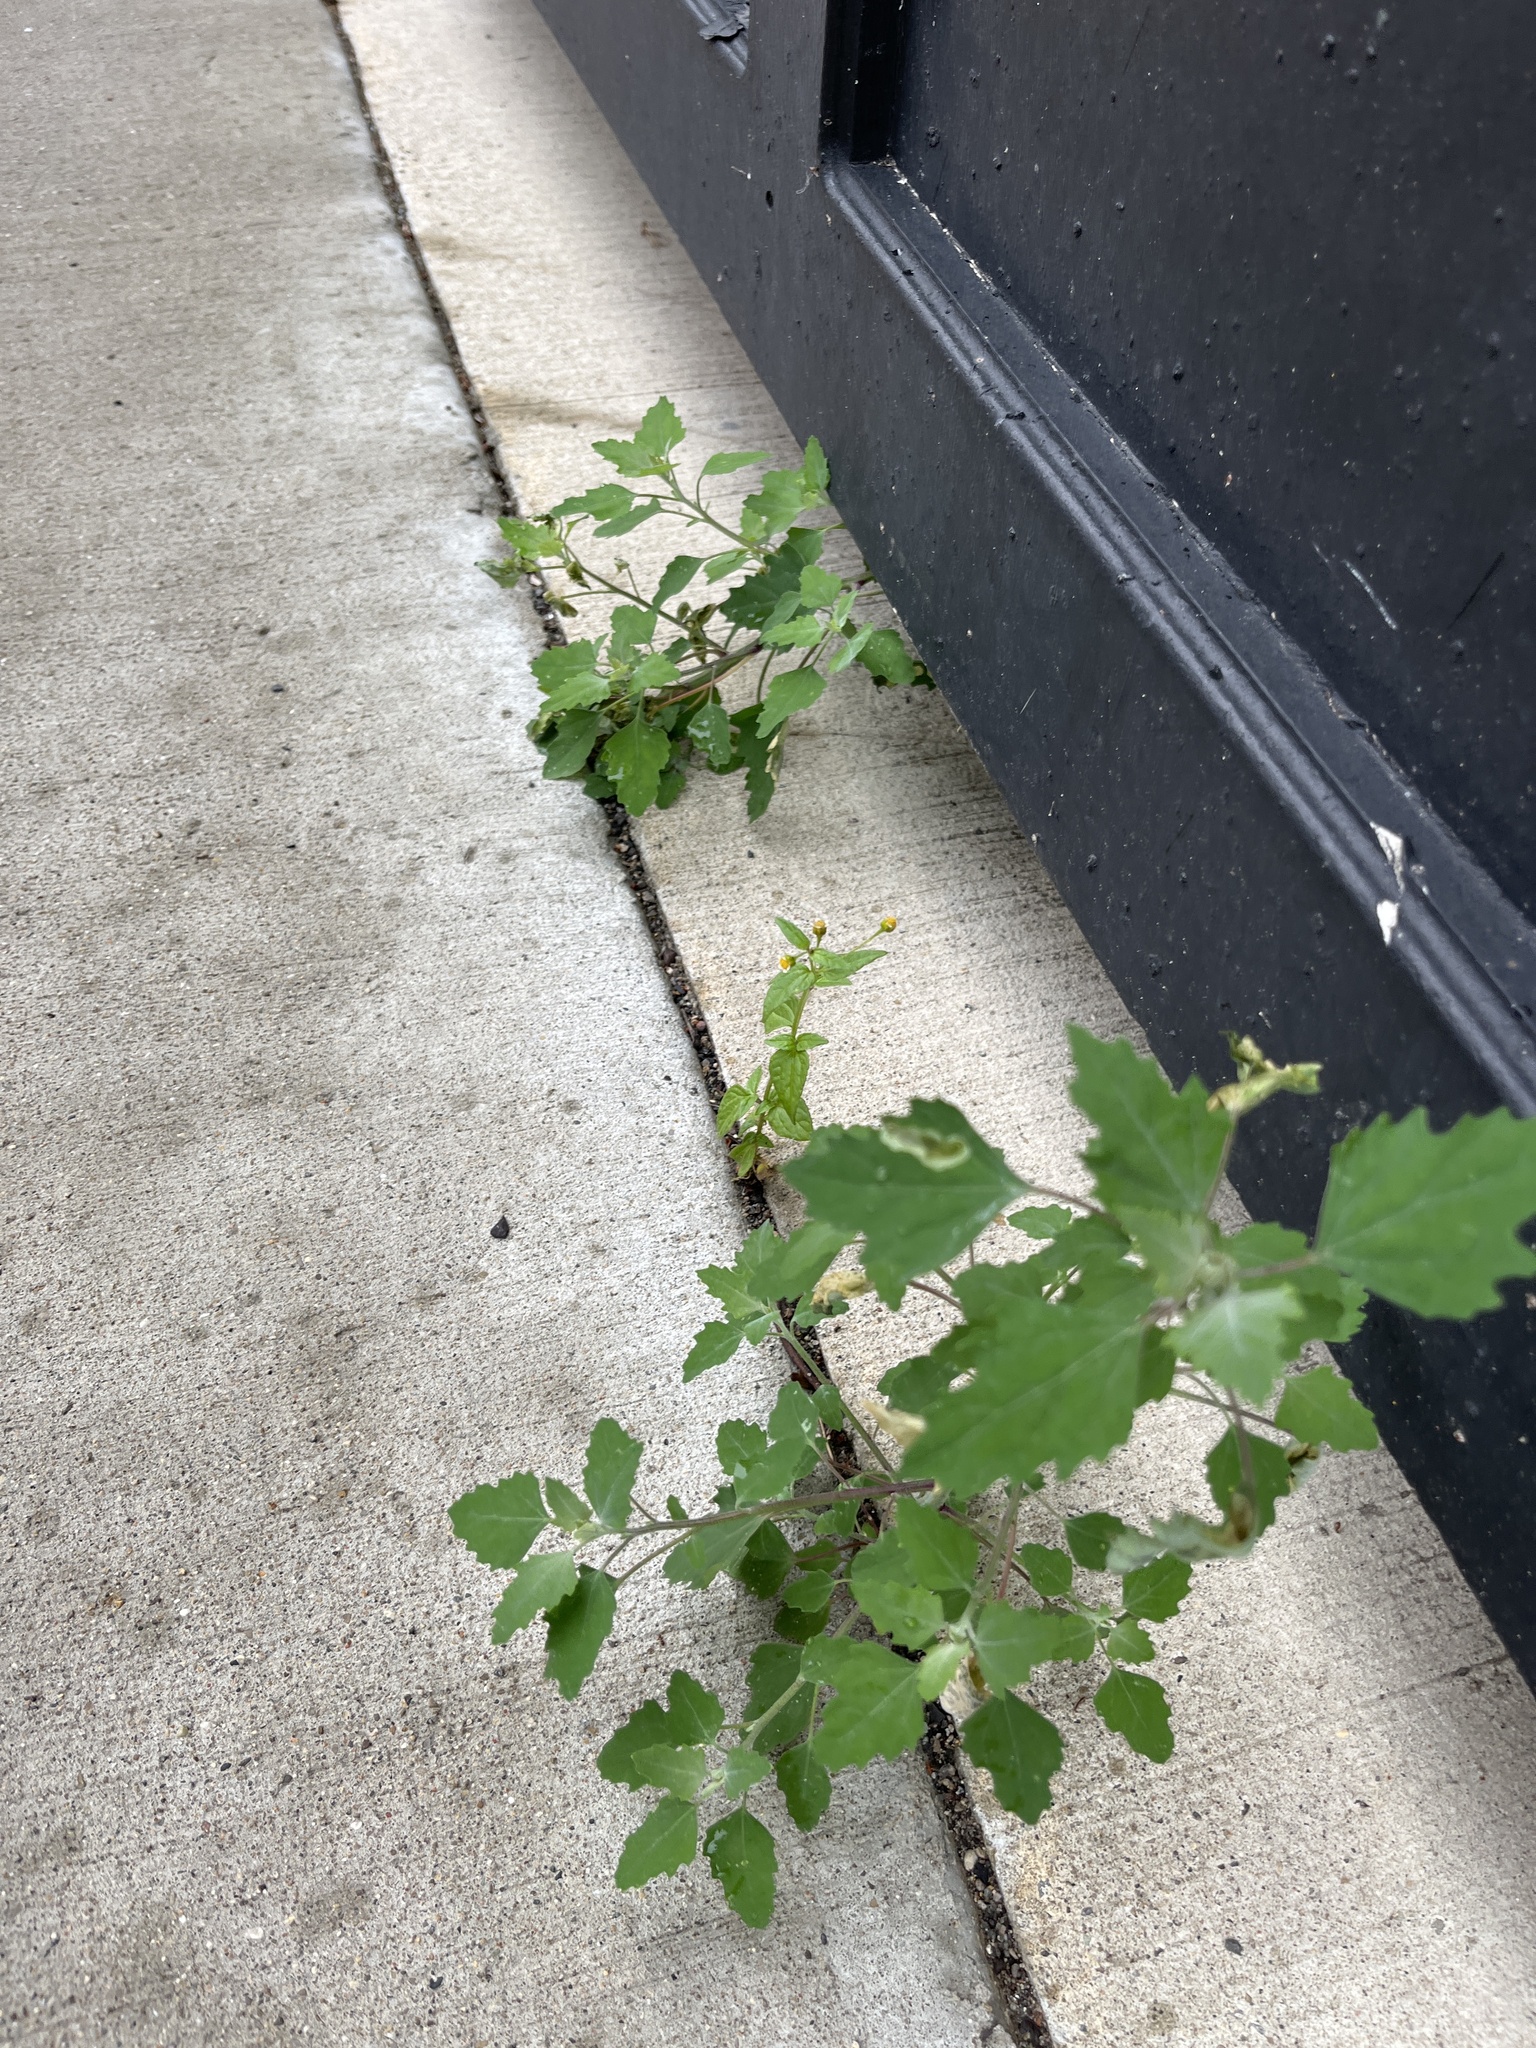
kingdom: Plantae
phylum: Tracheophyta
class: Magnoliopsida
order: Caryophyllales
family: Amaranthaceae
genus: Chenopodium
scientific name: Chenopodium album
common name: Fat-hen
